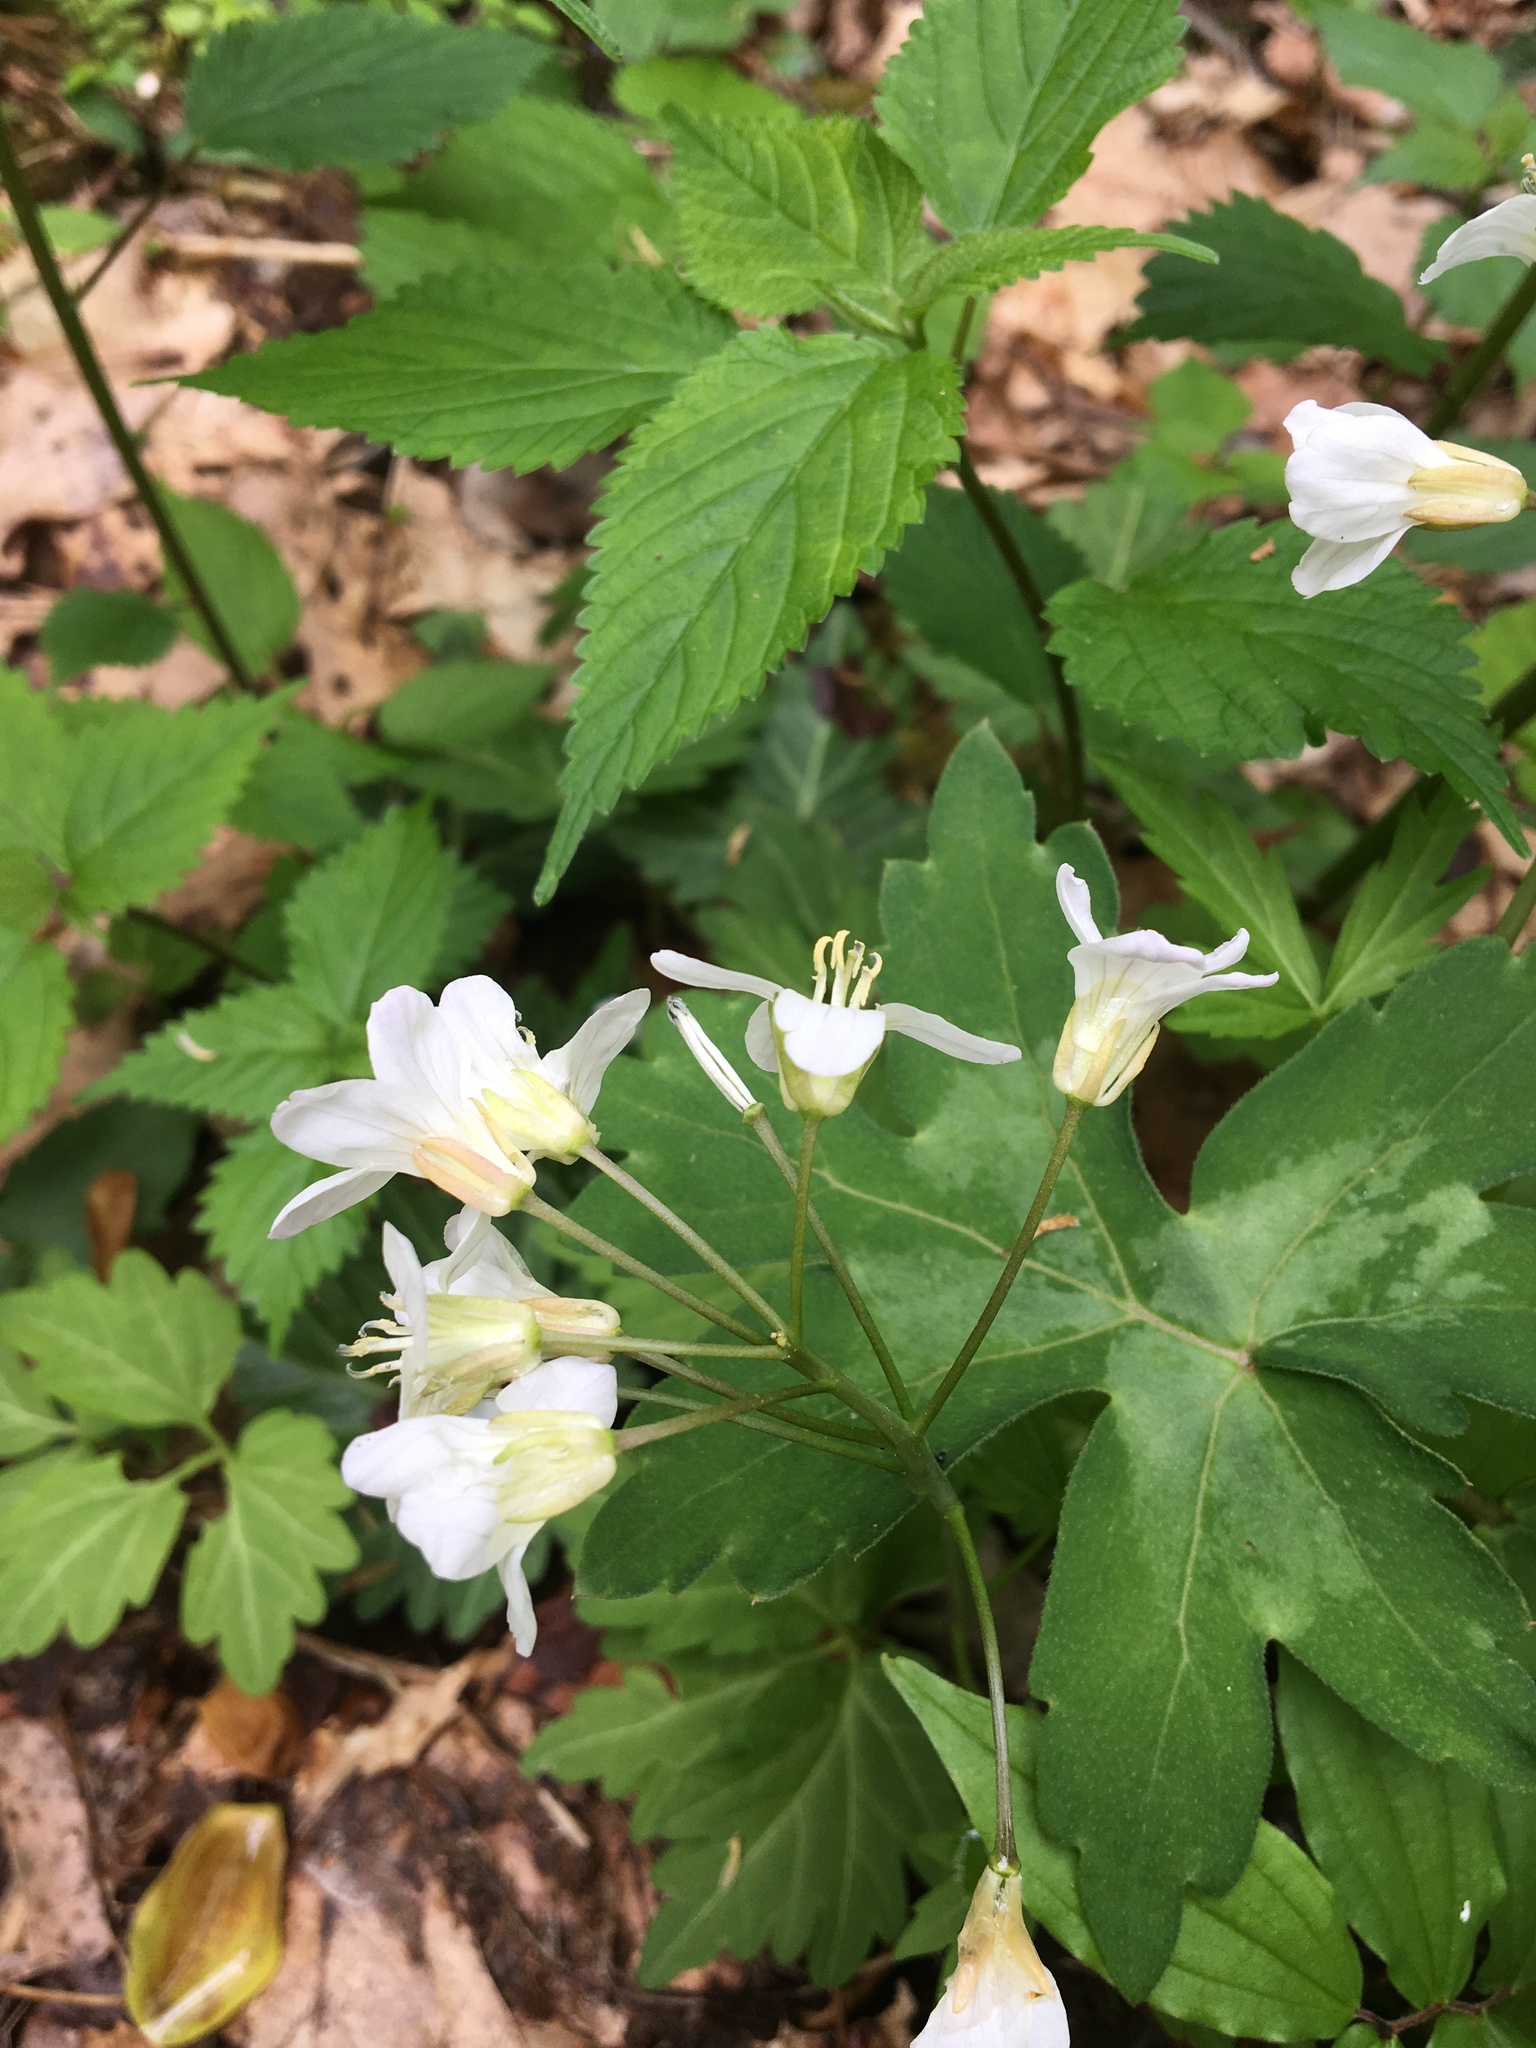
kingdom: Plantae
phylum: Tracheophyta
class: Magnoliopsida
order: Brassicales
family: Brassicaceae
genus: Cardamine
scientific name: Cardamine diphylla
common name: Broad-leaved toothwort
